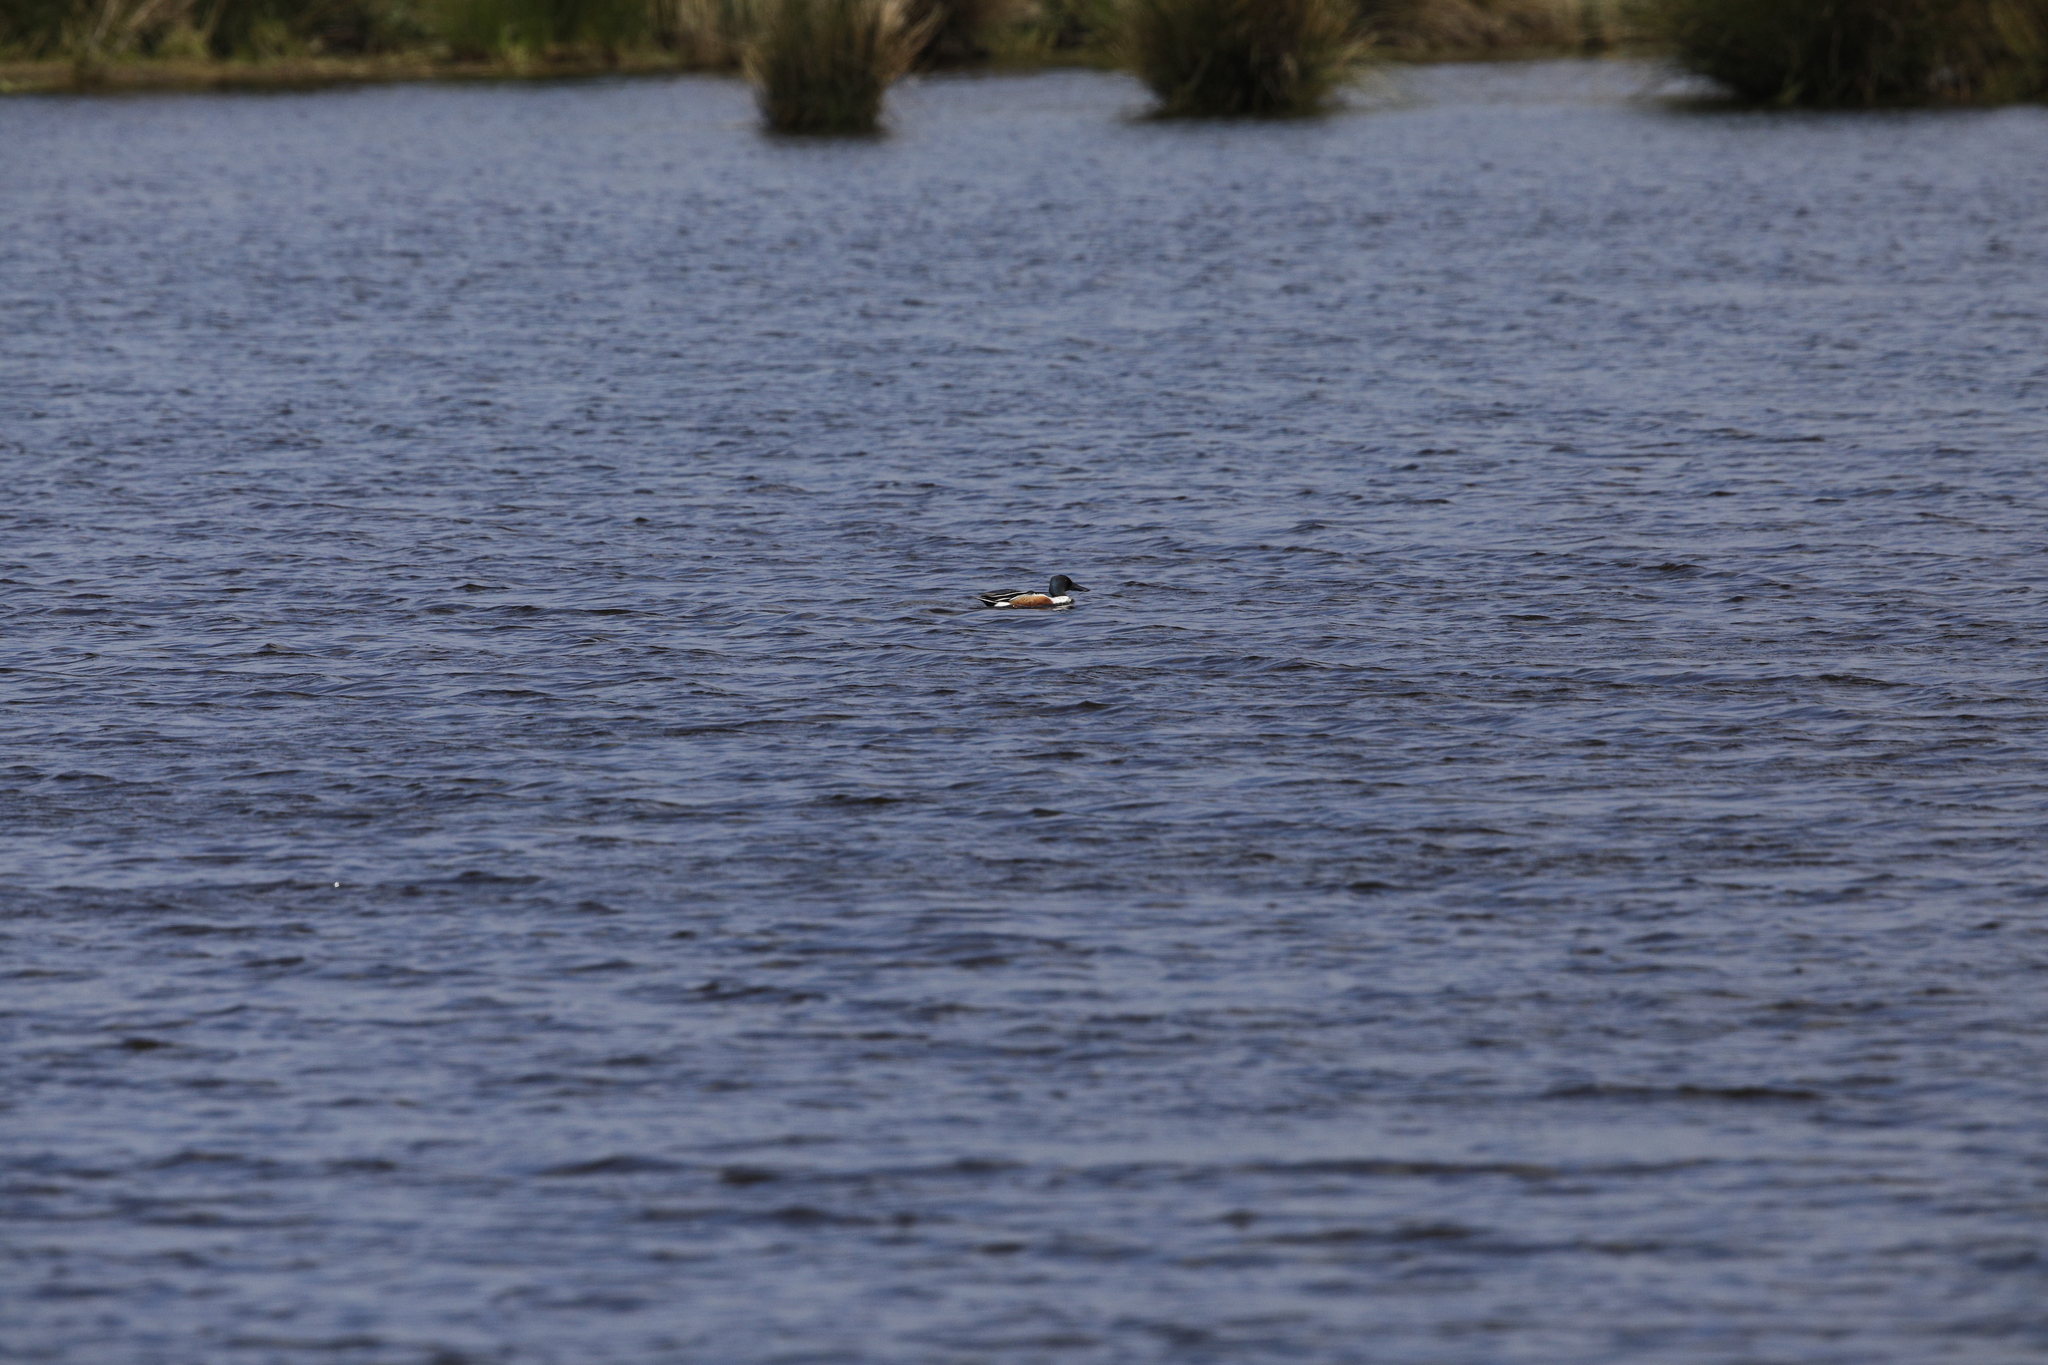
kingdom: Animalia
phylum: Chordata
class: Aves
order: Anseriformes
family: Anatidae
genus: Spatula
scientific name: Spatula clypeata
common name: Northern shoveler
